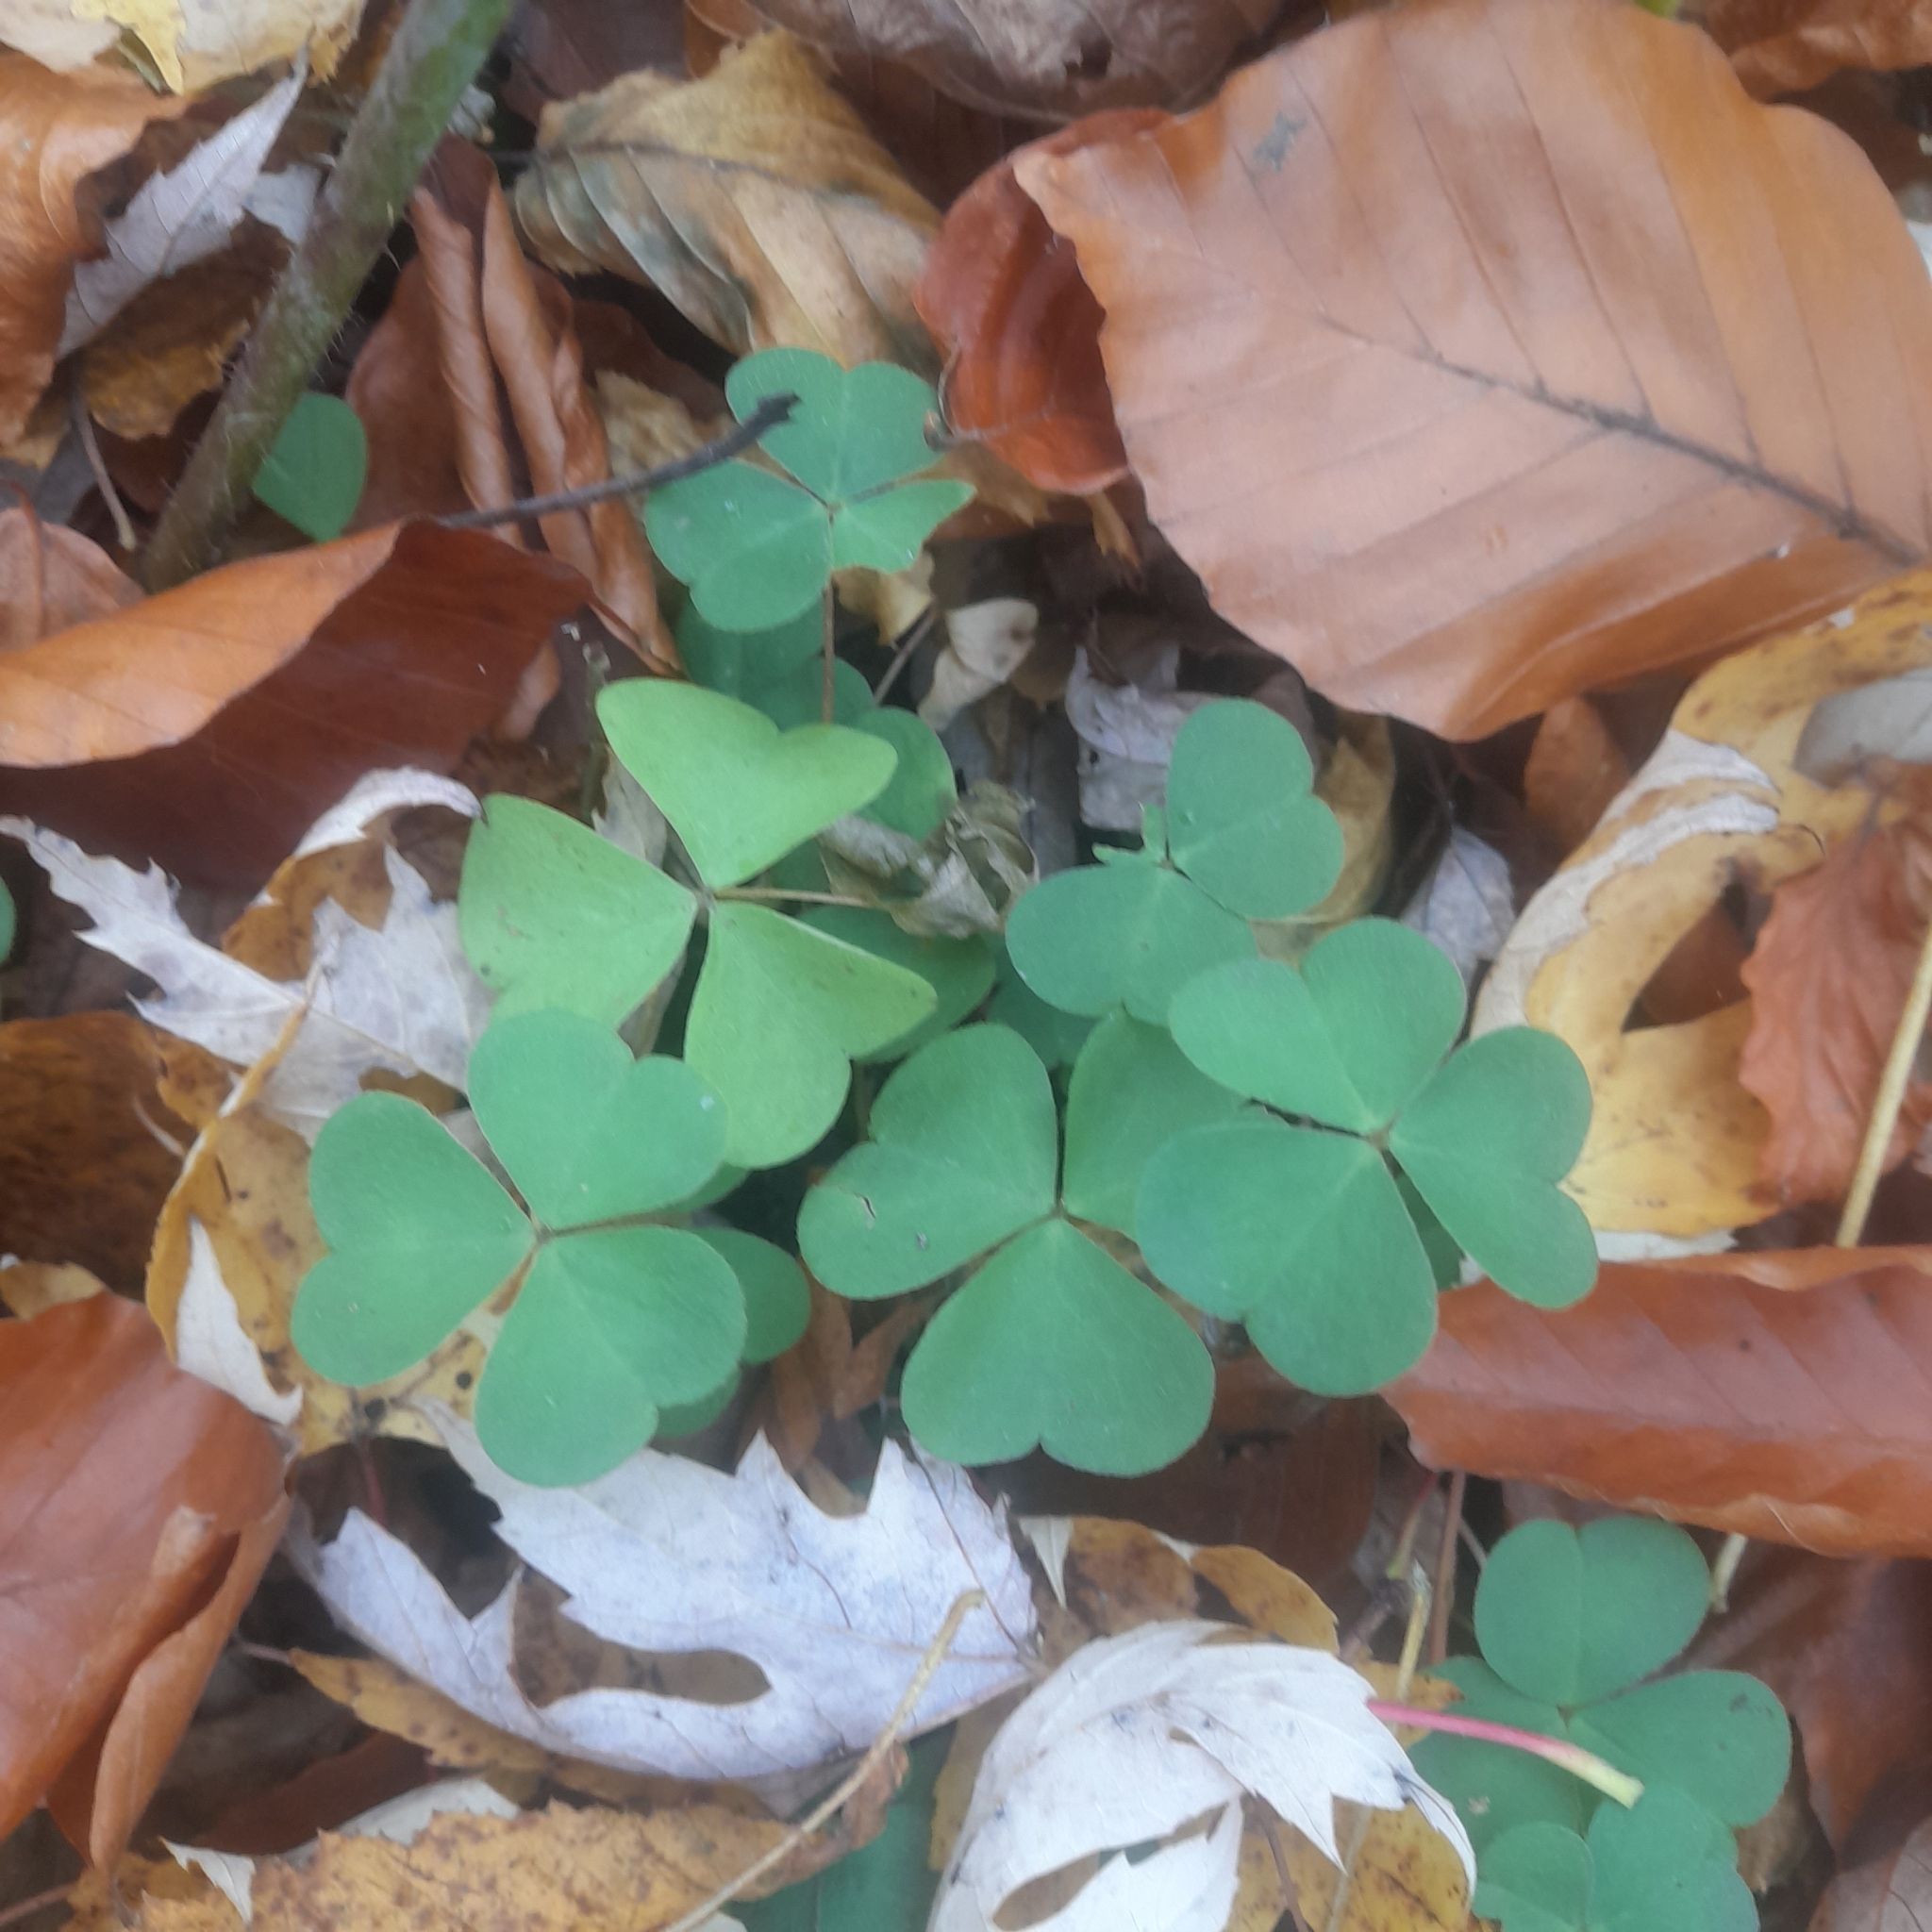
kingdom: Plantae
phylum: Tracheophyta
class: Magnoliopsida
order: Oxalidales
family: Oxalidaceae
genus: Oxalis
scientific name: Oxalis acetosella
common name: Wood-sorrel
